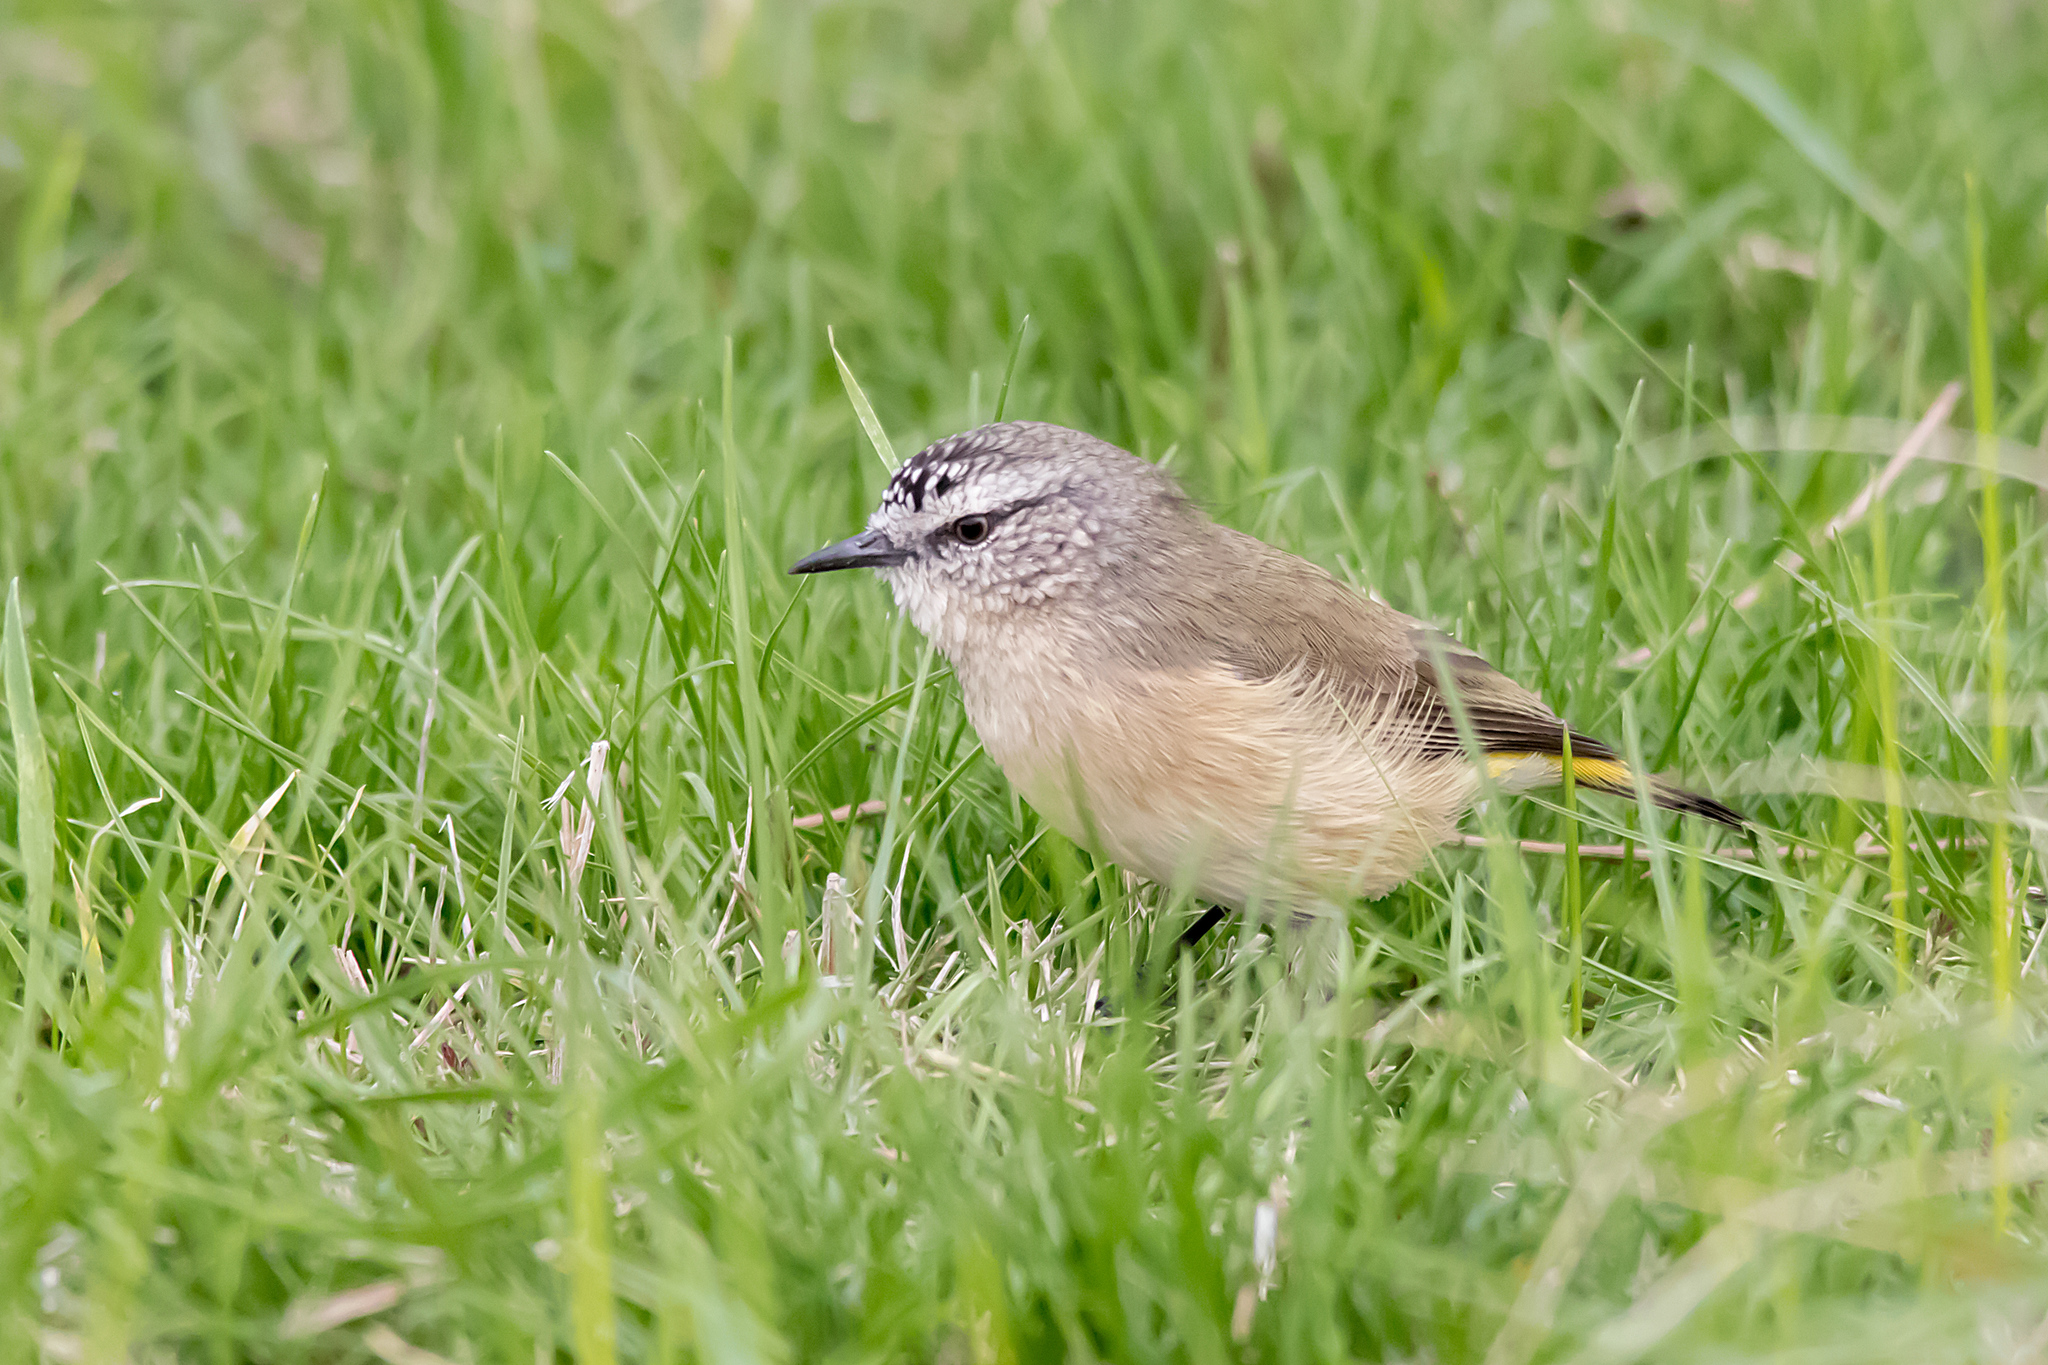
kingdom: Animalia
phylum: Chordata
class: Aves
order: Passeriformes
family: Acanthizidae
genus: Acanthiza
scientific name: Acanthiza chrysorrhoa
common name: Yellow-rumped thornbill
